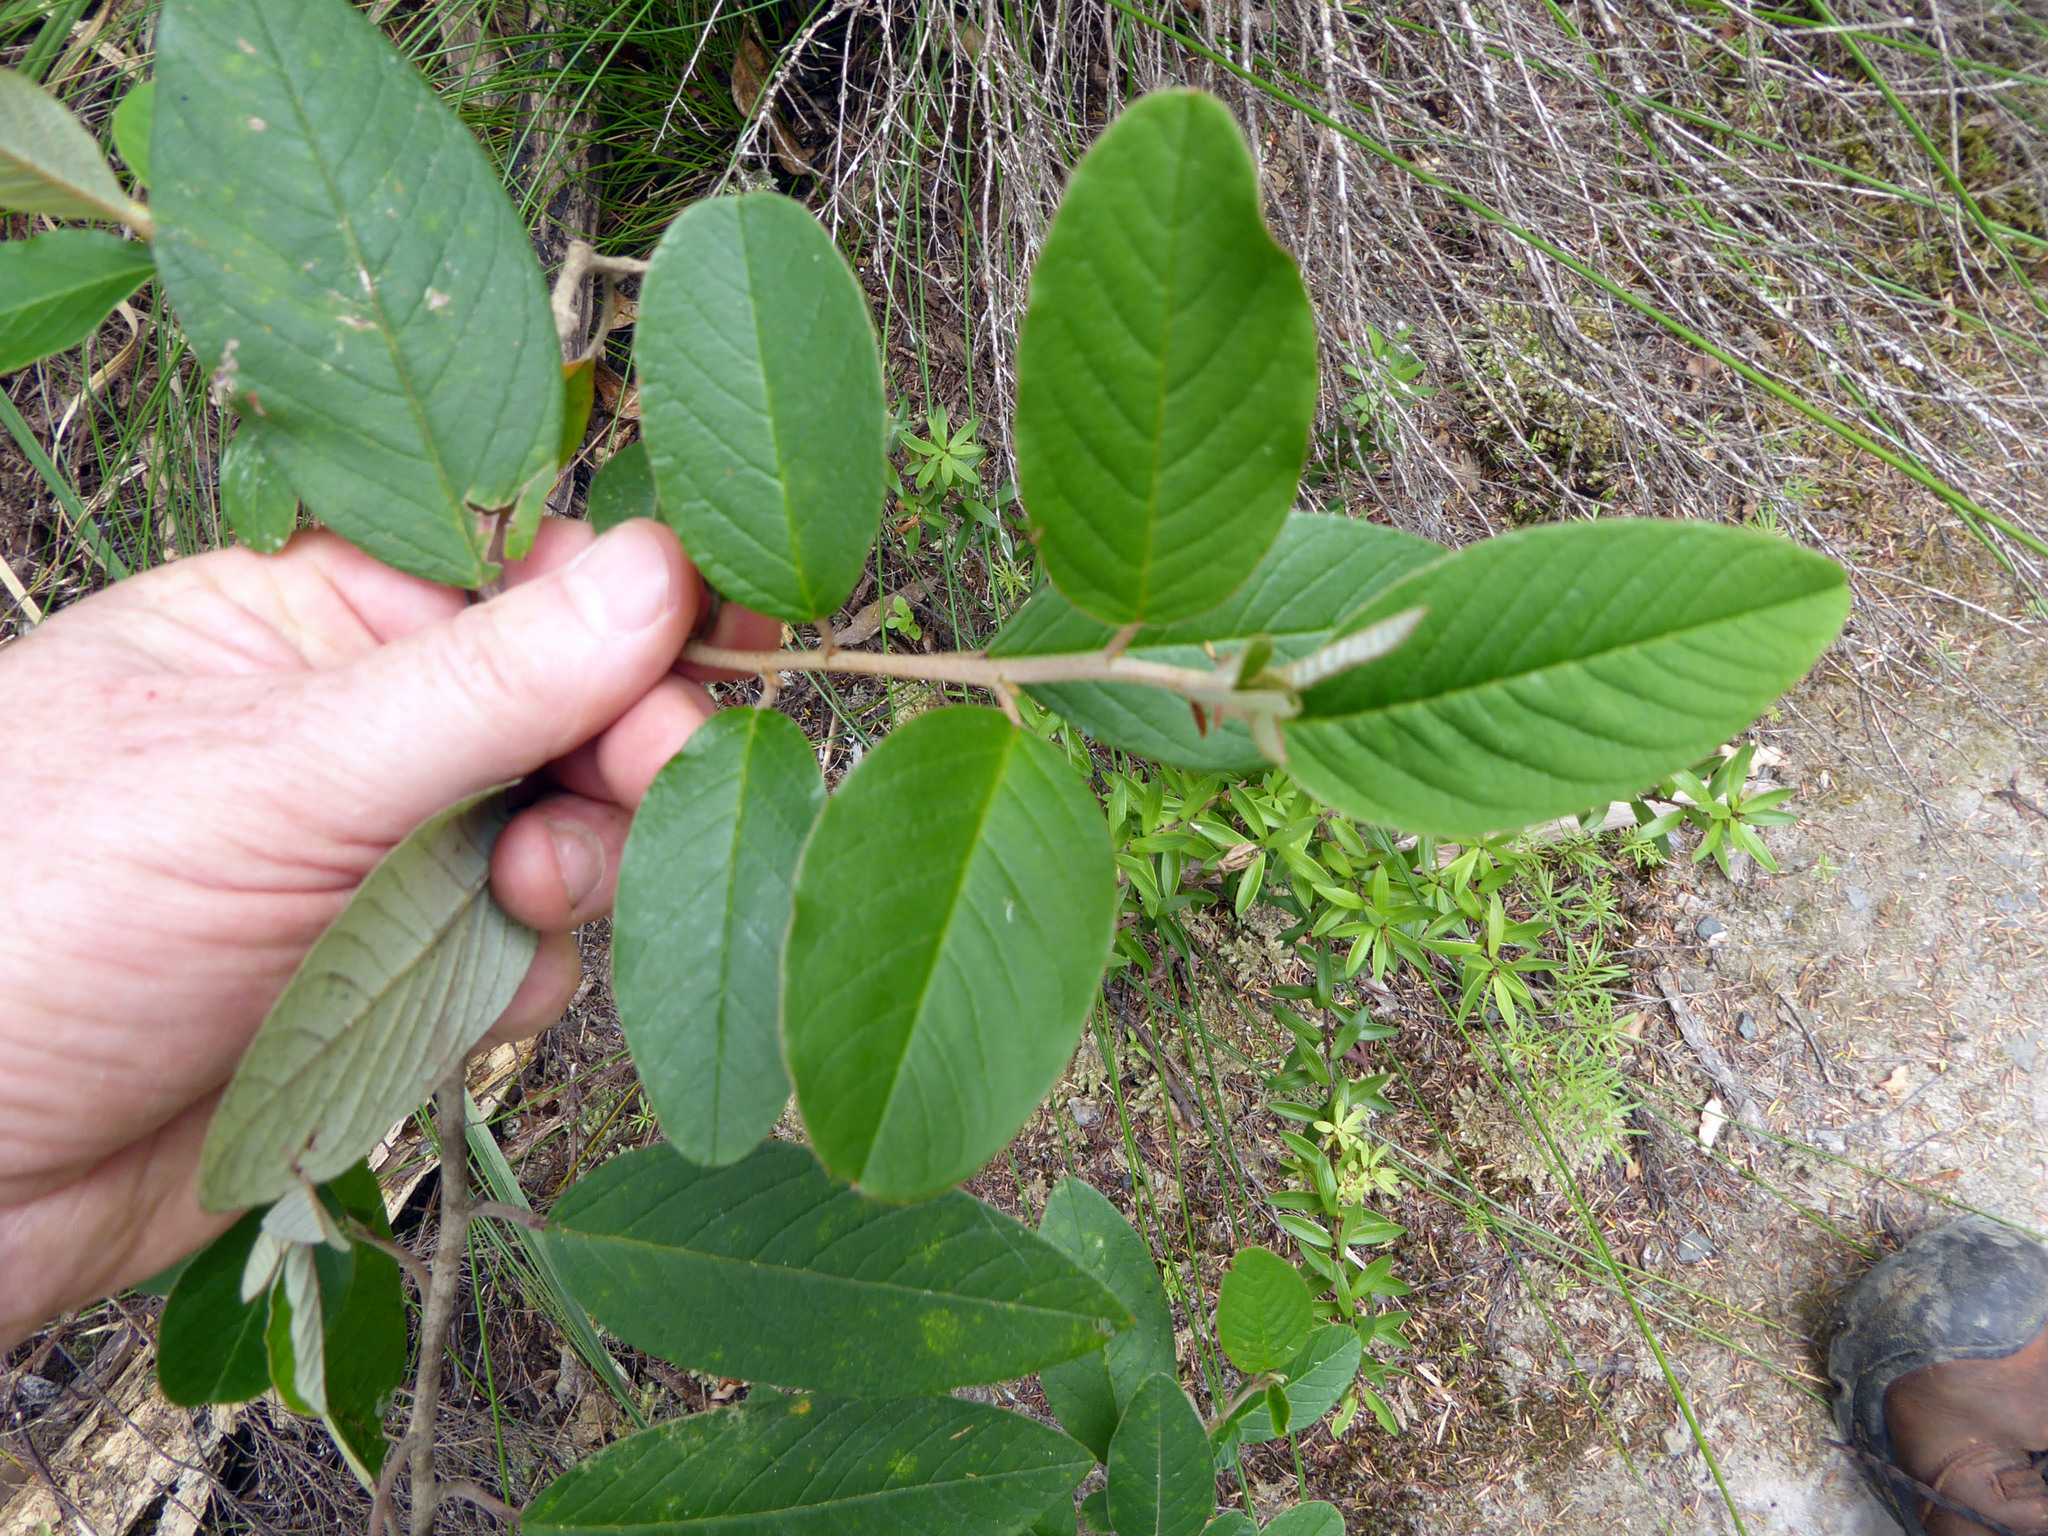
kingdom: Plantae
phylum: Tracheophyta
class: Magnoliopsida
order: Rosales
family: Rhamnaceae
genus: Pomaderris
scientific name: Pomaderris kumeraho
